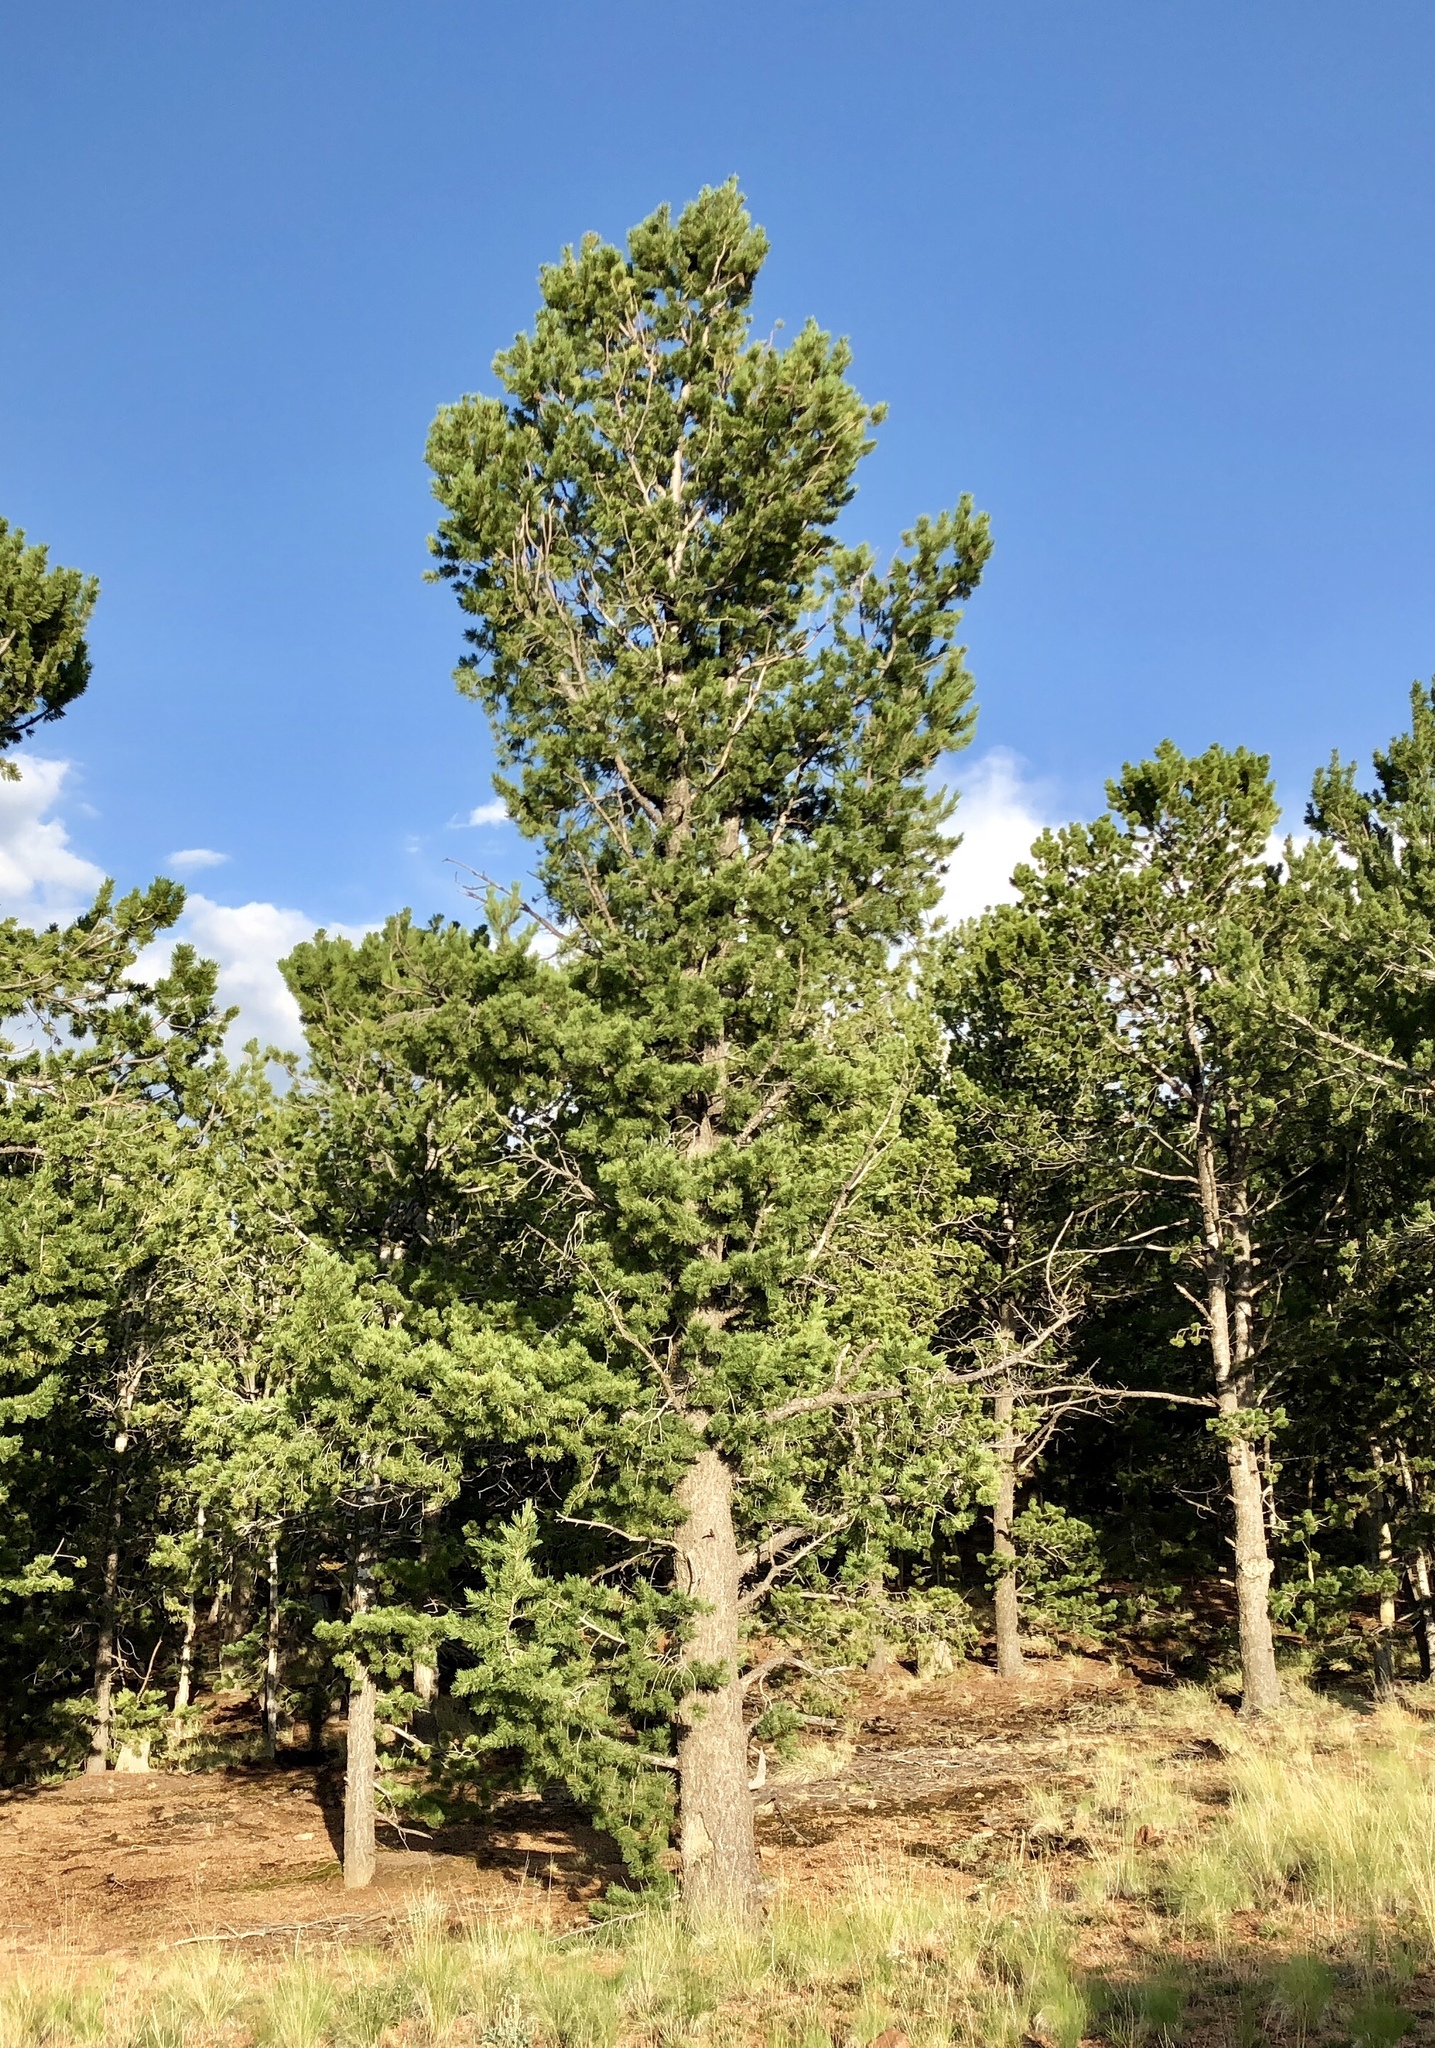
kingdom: Plantae
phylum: Tracheophyta
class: Pinopsida
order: Pinales
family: Pinaceae
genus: Pinus
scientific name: Pinus flexilis
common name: Limber pine
